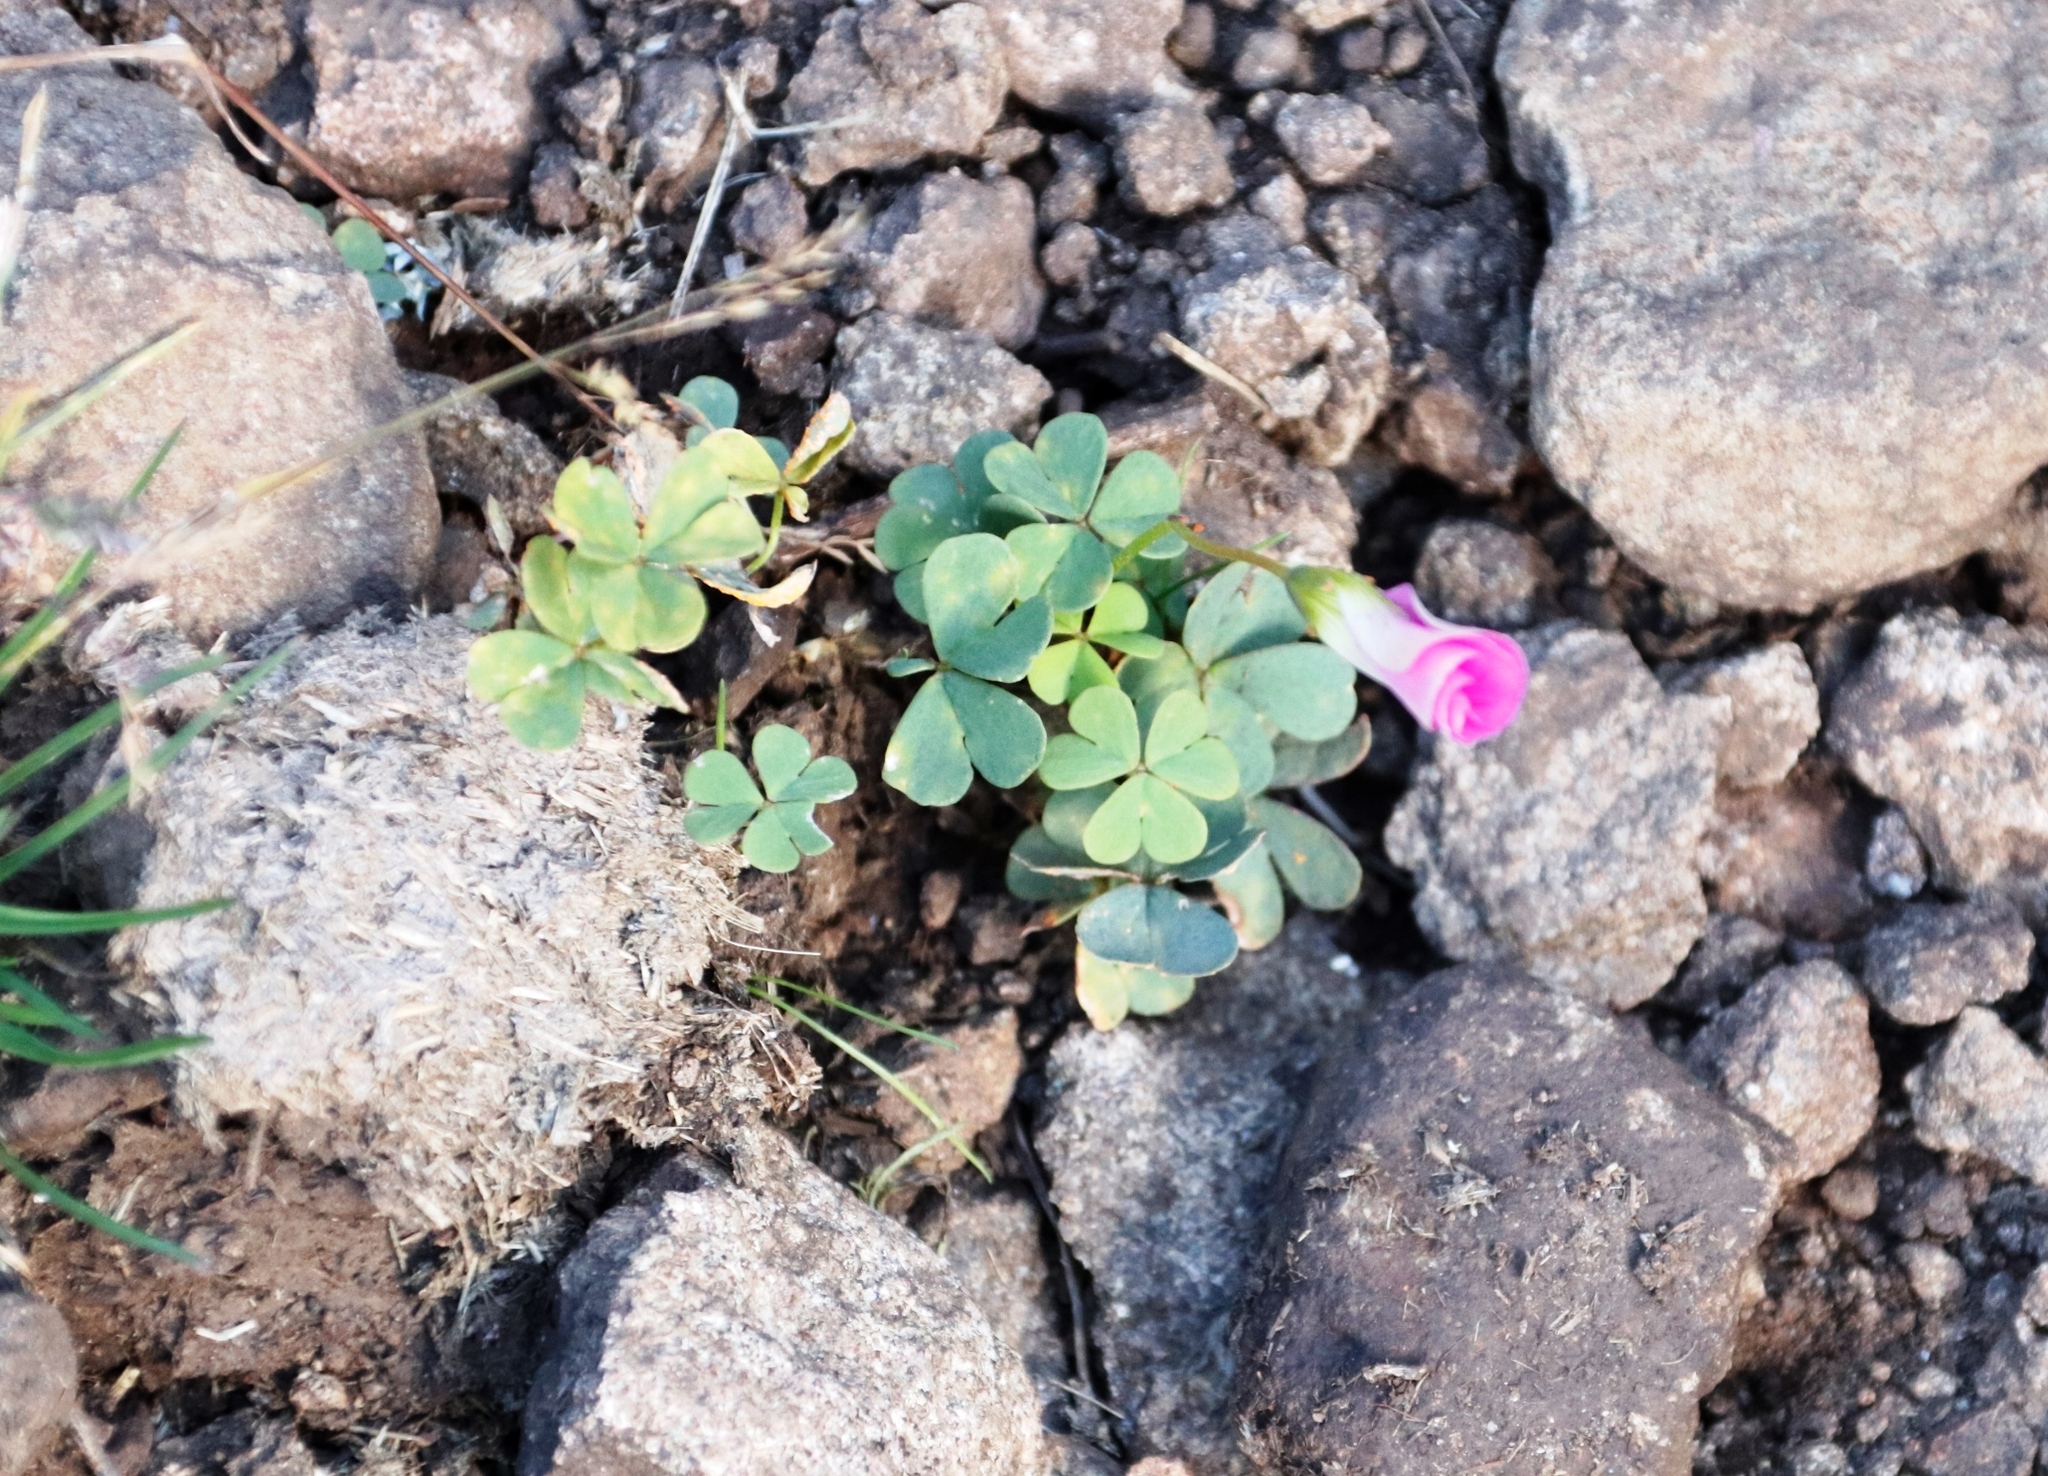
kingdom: Plantae
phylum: Tracheophyta
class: Magnoliopsida
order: Oxalidales
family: Oxalidaceae
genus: Oxalis
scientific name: Oxalis smithiana
